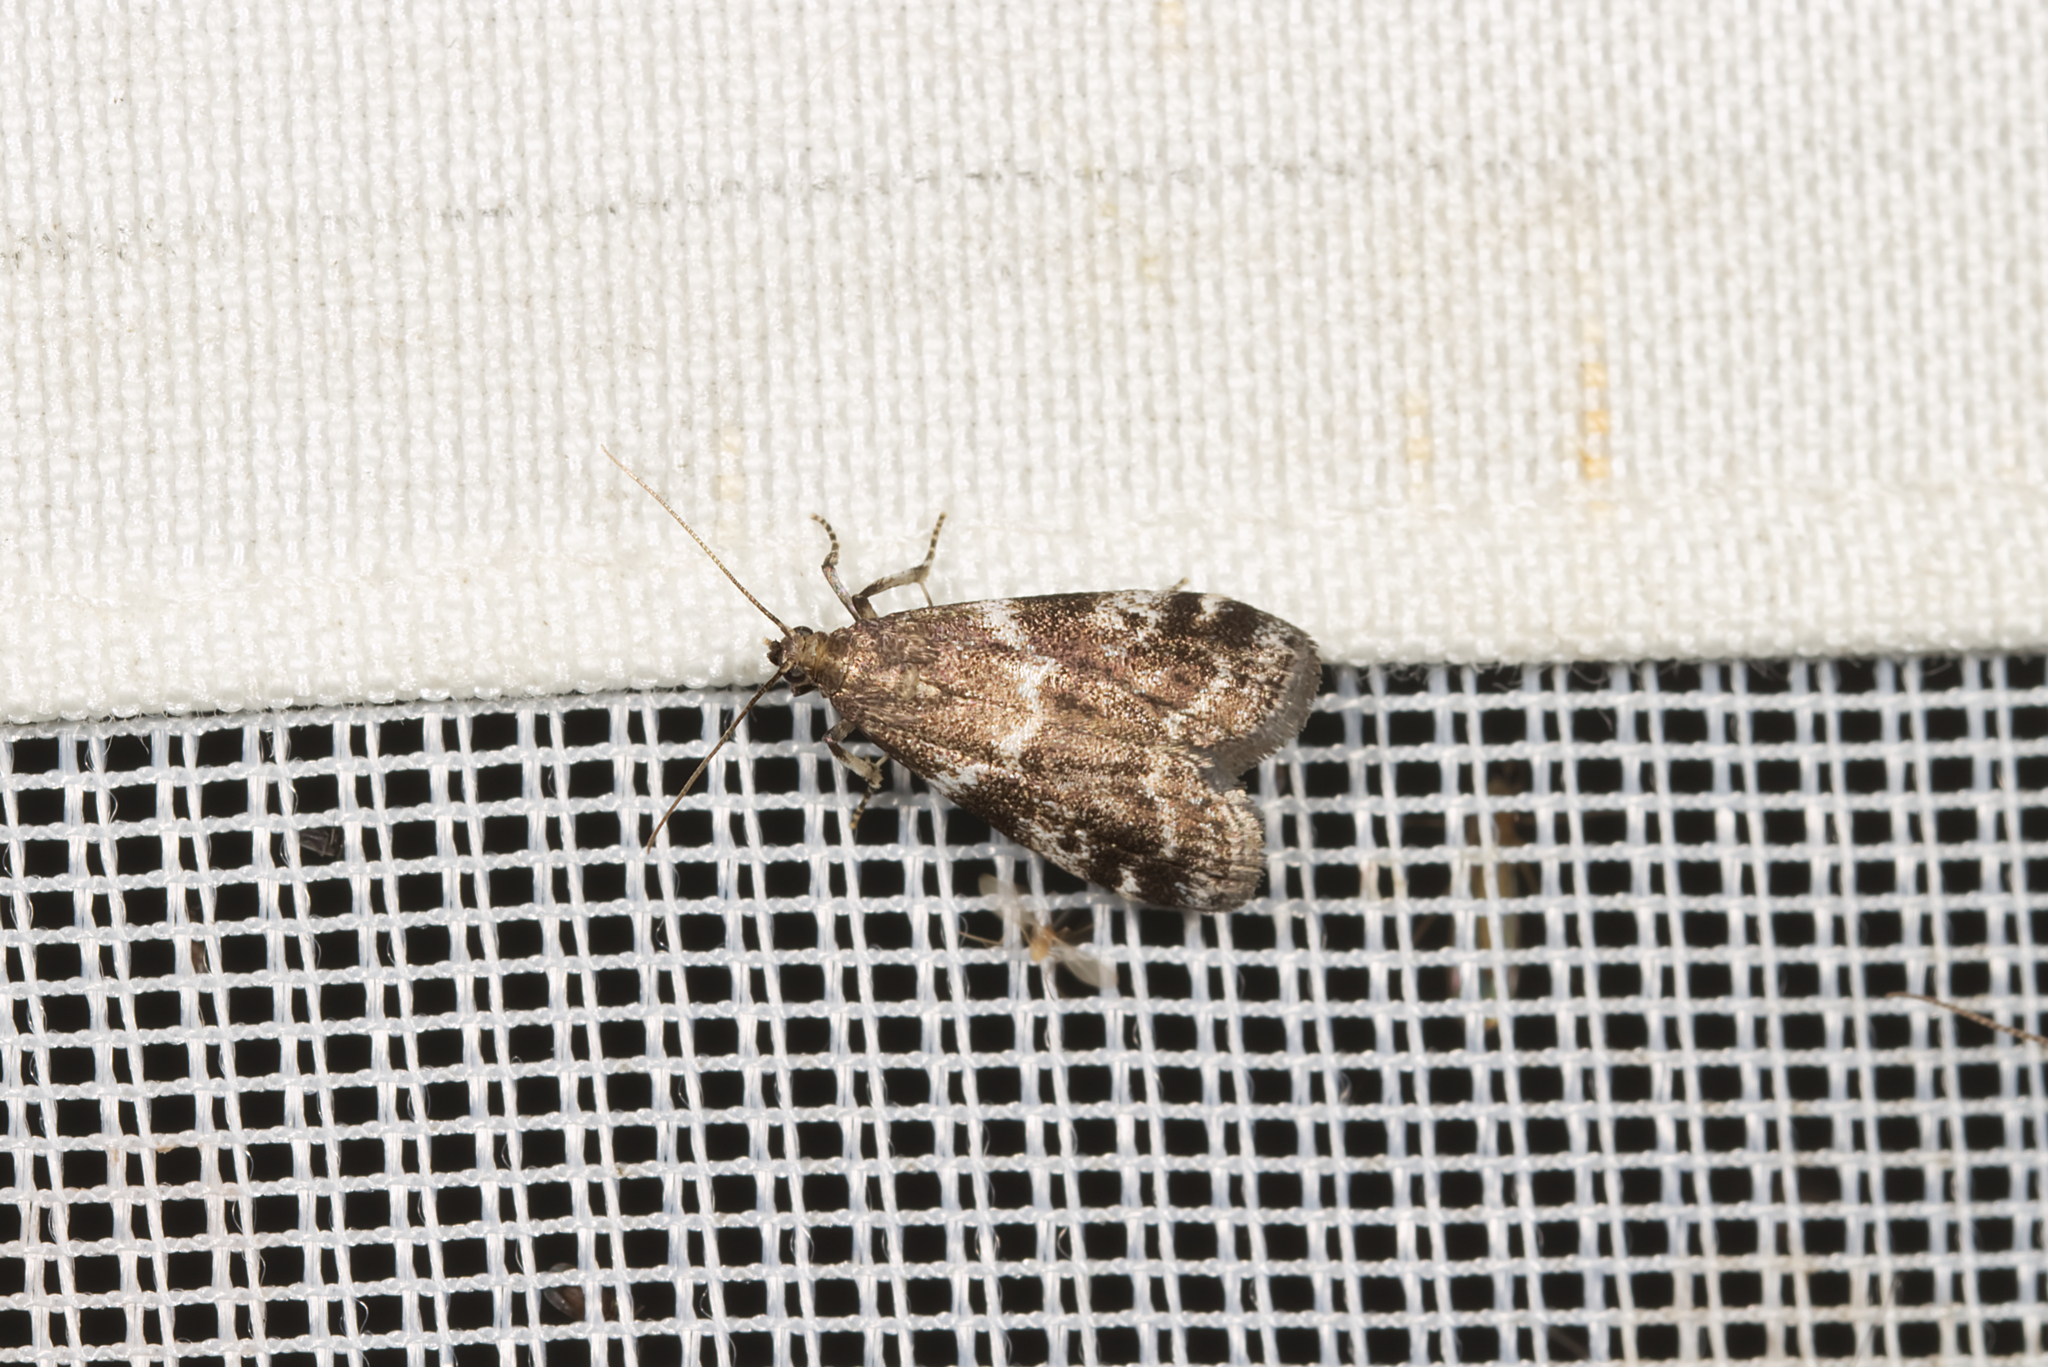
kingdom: Animalia
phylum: Arthropoda
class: Insecta
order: Lepidoptera
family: Pyralidae
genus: Assara
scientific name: Assara terebrella
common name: Dark spruce knot-horn
